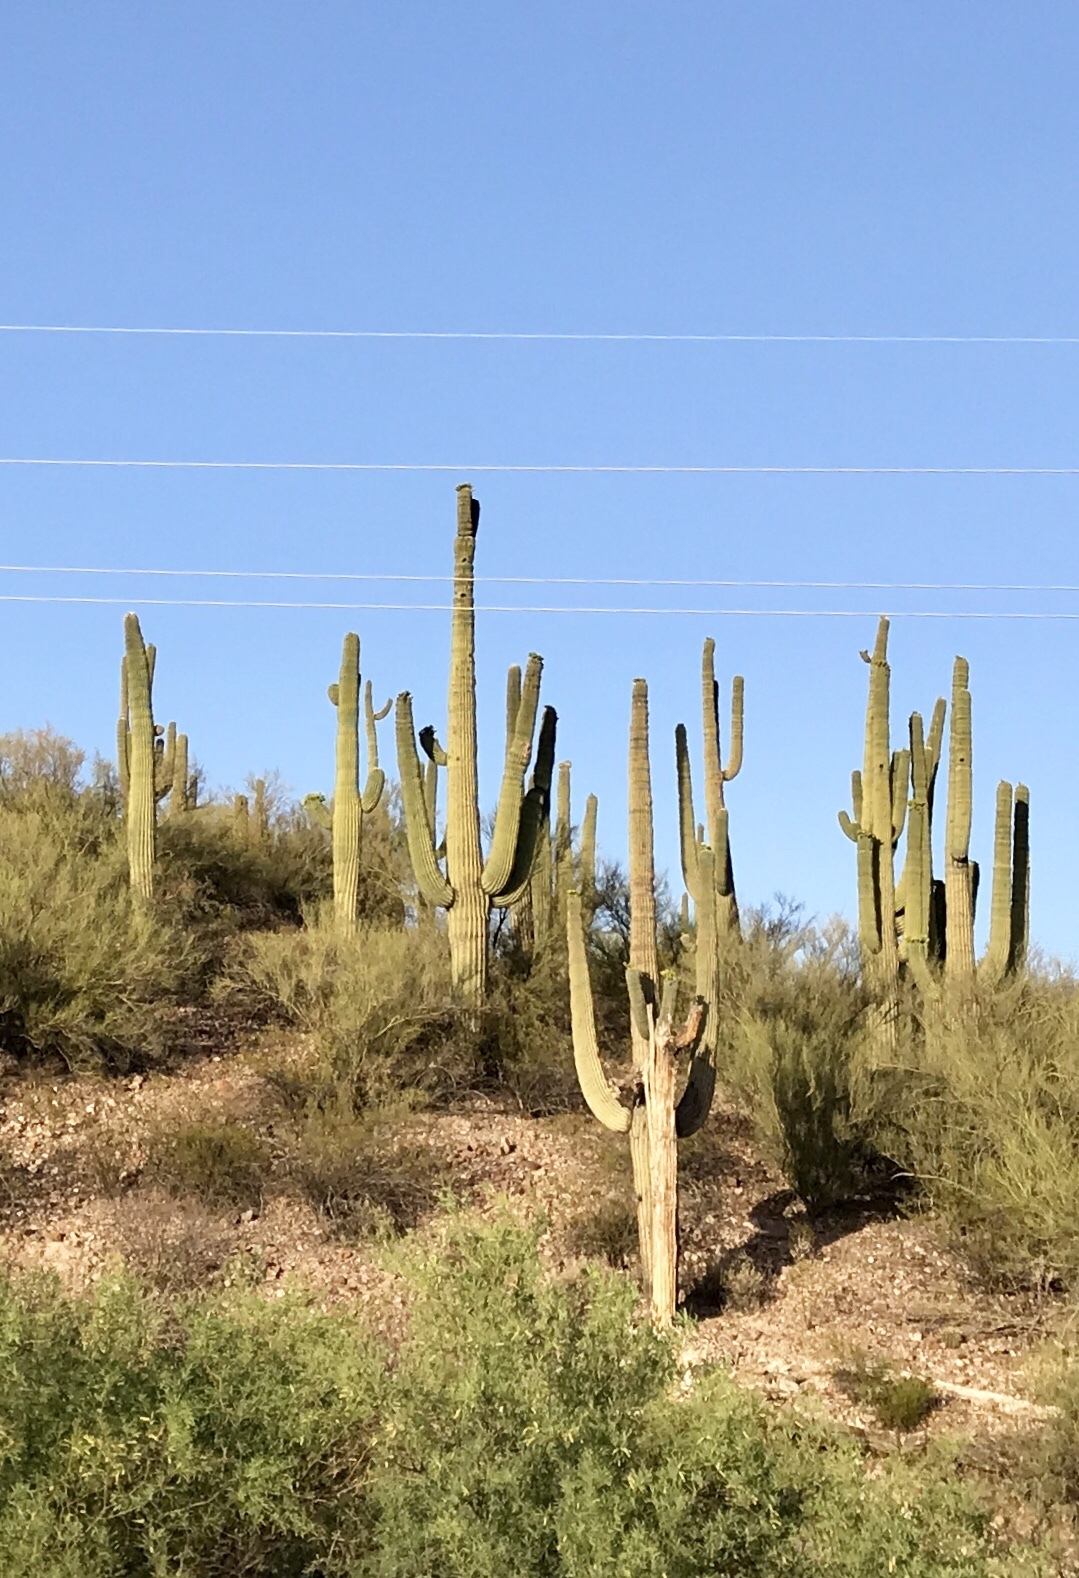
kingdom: Plantae
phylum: Tracheophyta
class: Magnoliopsida
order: Caryophyllales
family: Cactaceae
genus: Carnegiea
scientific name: Carnegiea gigantea
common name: Saguaro
